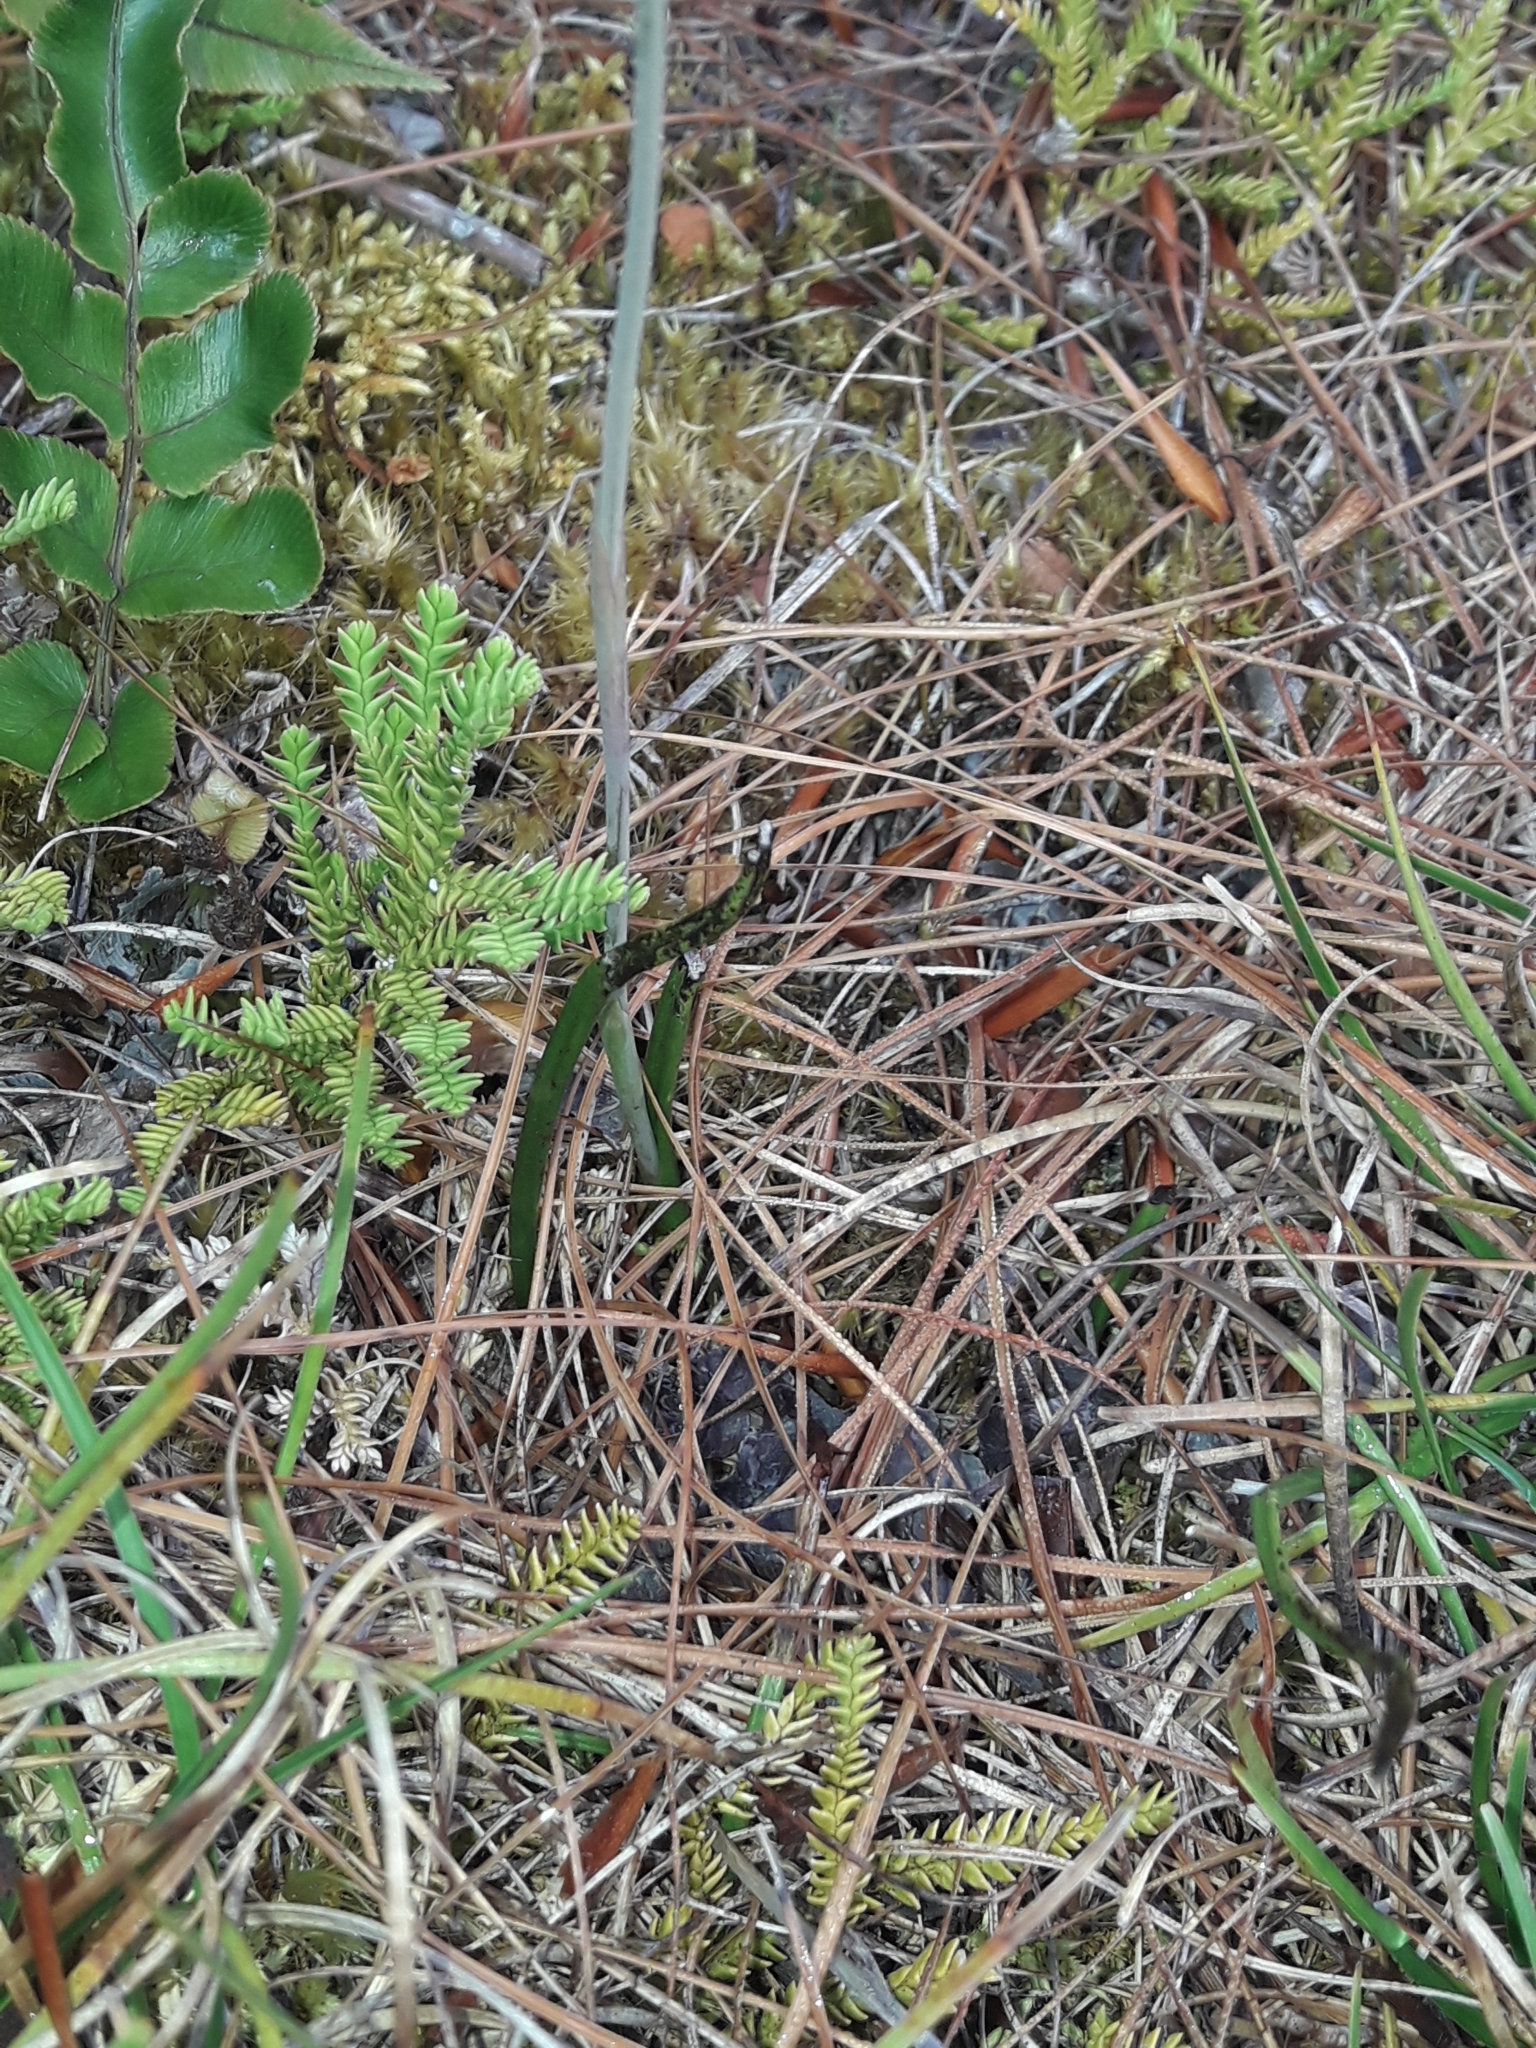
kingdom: Plantae
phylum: Tracheophyta
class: Liliopsida
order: Asparagales
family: Orchidaceae
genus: Thelymitra
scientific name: Thelymitra cyanea
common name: Blue sun-orchid
